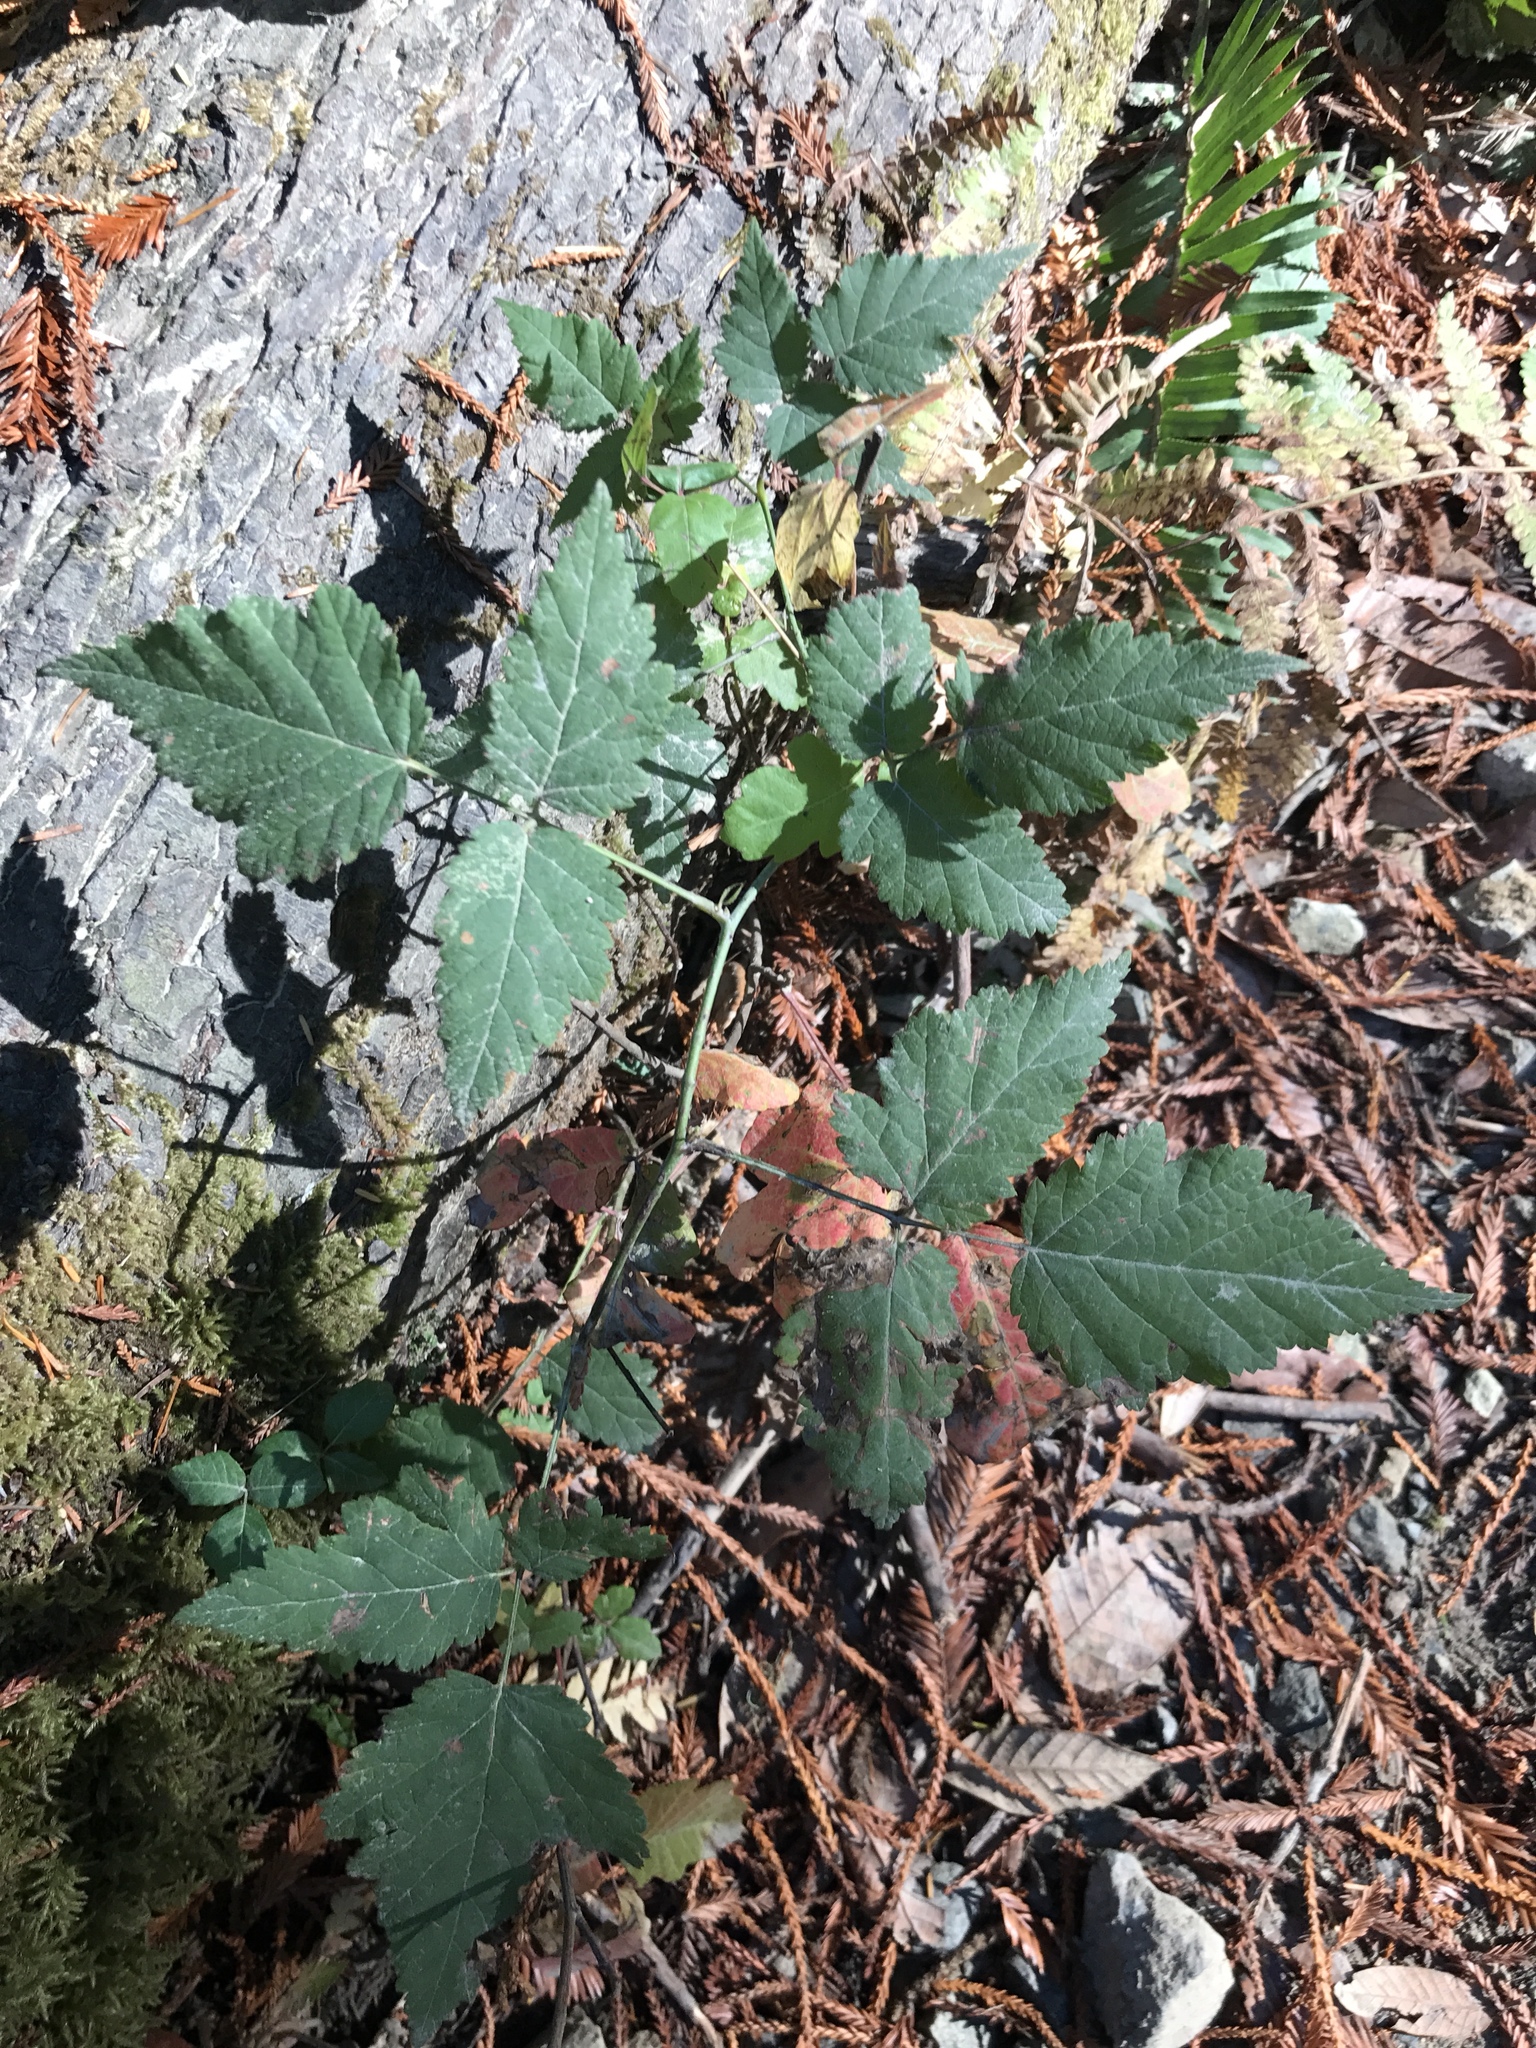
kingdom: Plantae
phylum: Tracheophyta
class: Magnoliopsida
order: Rosales
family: Rosaceae
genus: Rubus
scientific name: Rubus ursinus
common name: Pacific blackberry
